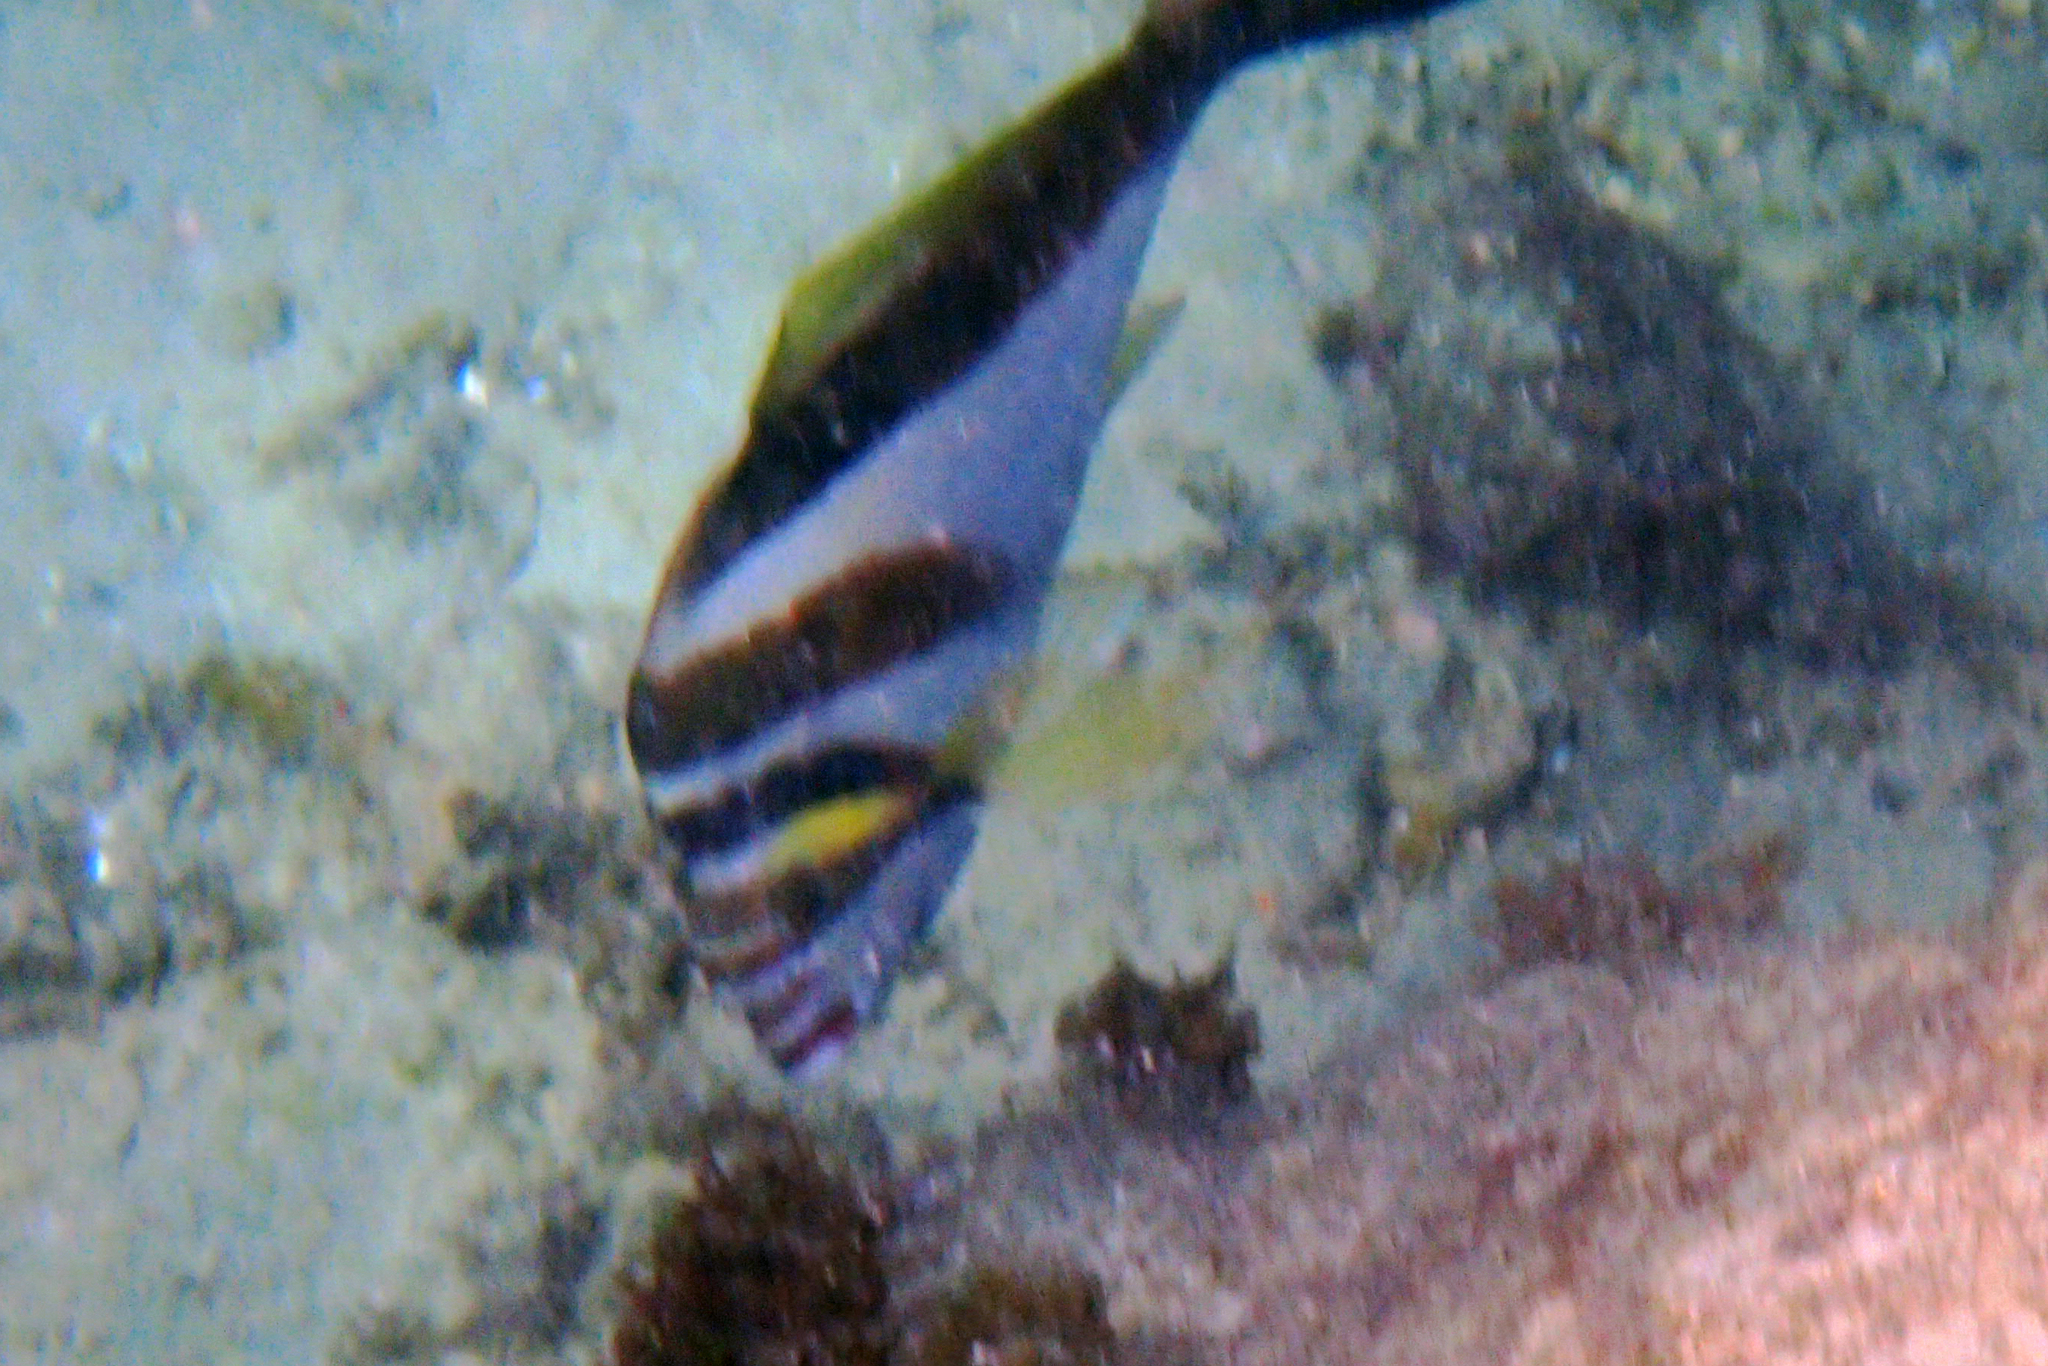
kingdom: Animalia
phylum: Chordata
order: Perciformes
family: Cheilodactylidae
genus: Cheilodactylus
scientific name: Cheilodactylus vestitus
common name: Crested morwong
